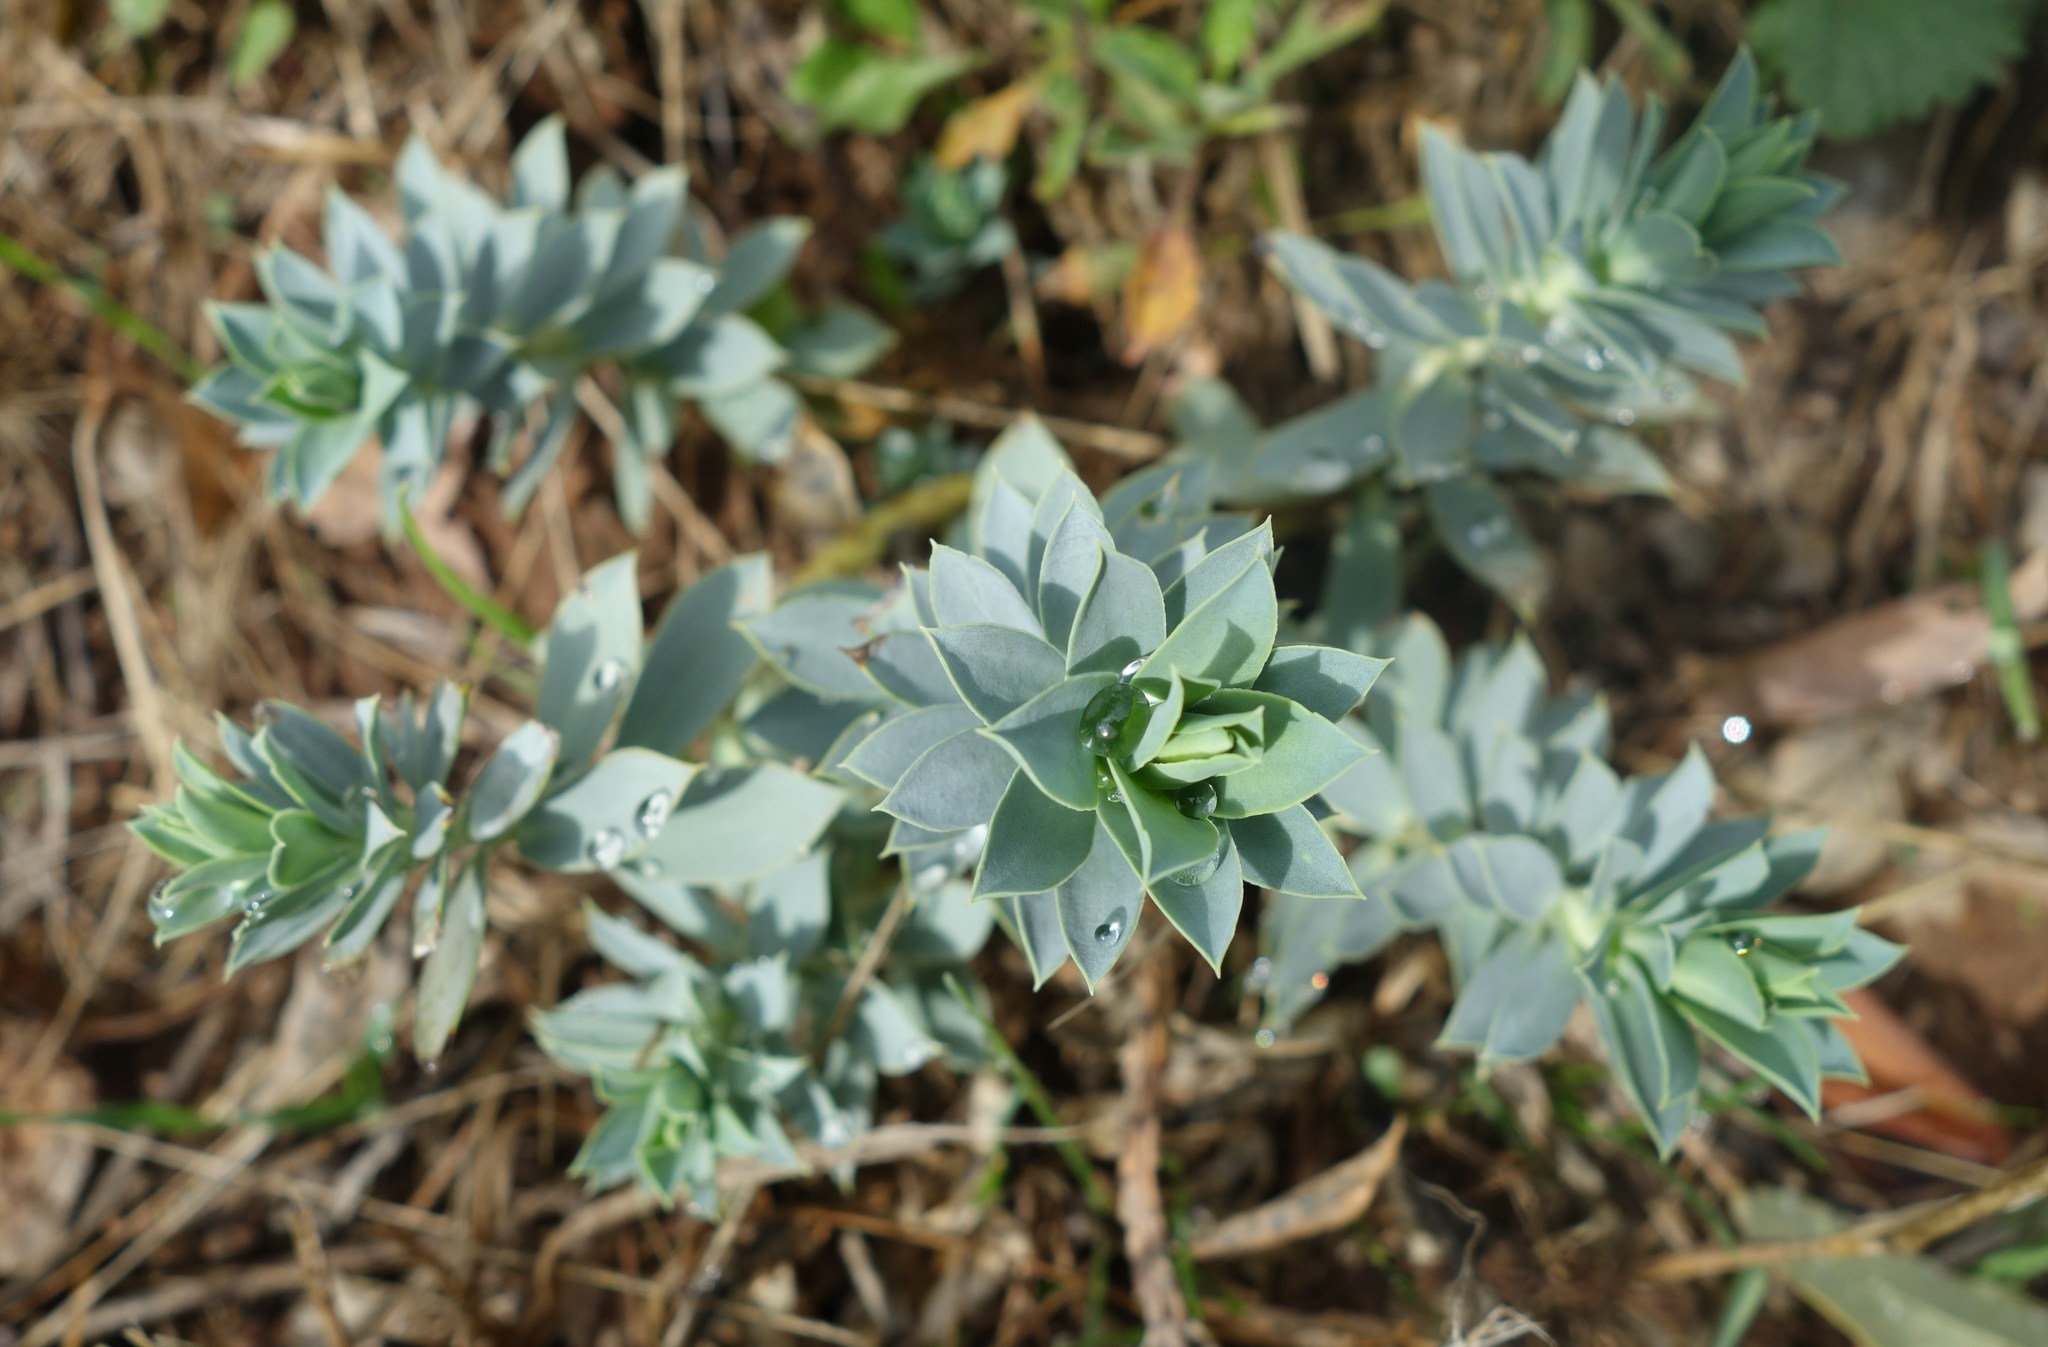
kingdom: Plantae
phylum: Tracheophyta
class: Magnoliopsida
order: Malpighiales
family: Euphorbiaceae
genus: Euphorbia
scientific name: Euphorbia myrsinites
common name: Myrtle spurge
